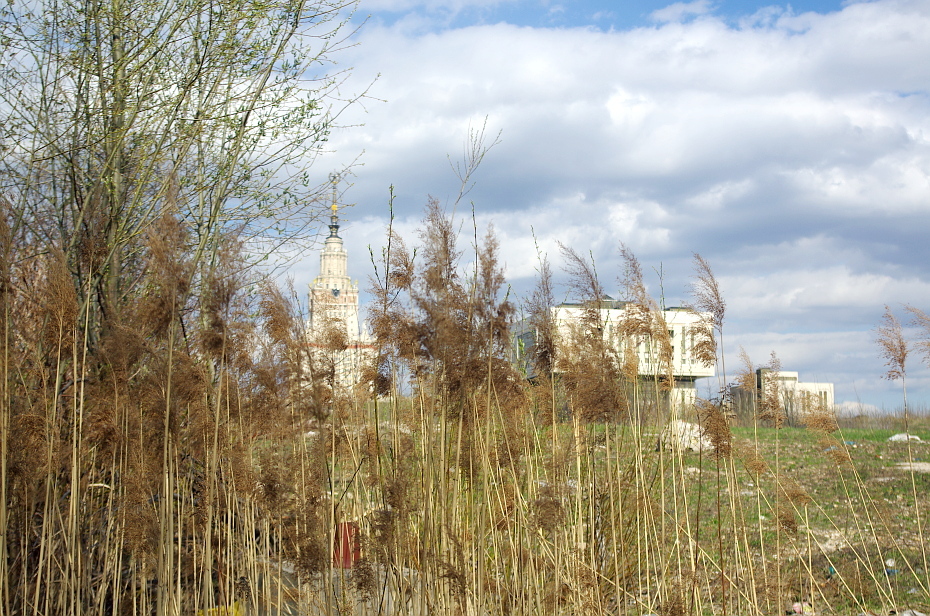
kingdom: Plantae
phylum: Tracheophyta
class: Liliopsida
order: Poales
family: Poaceae
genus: Phragmites
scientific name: Phragmites australis
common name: Common reed
